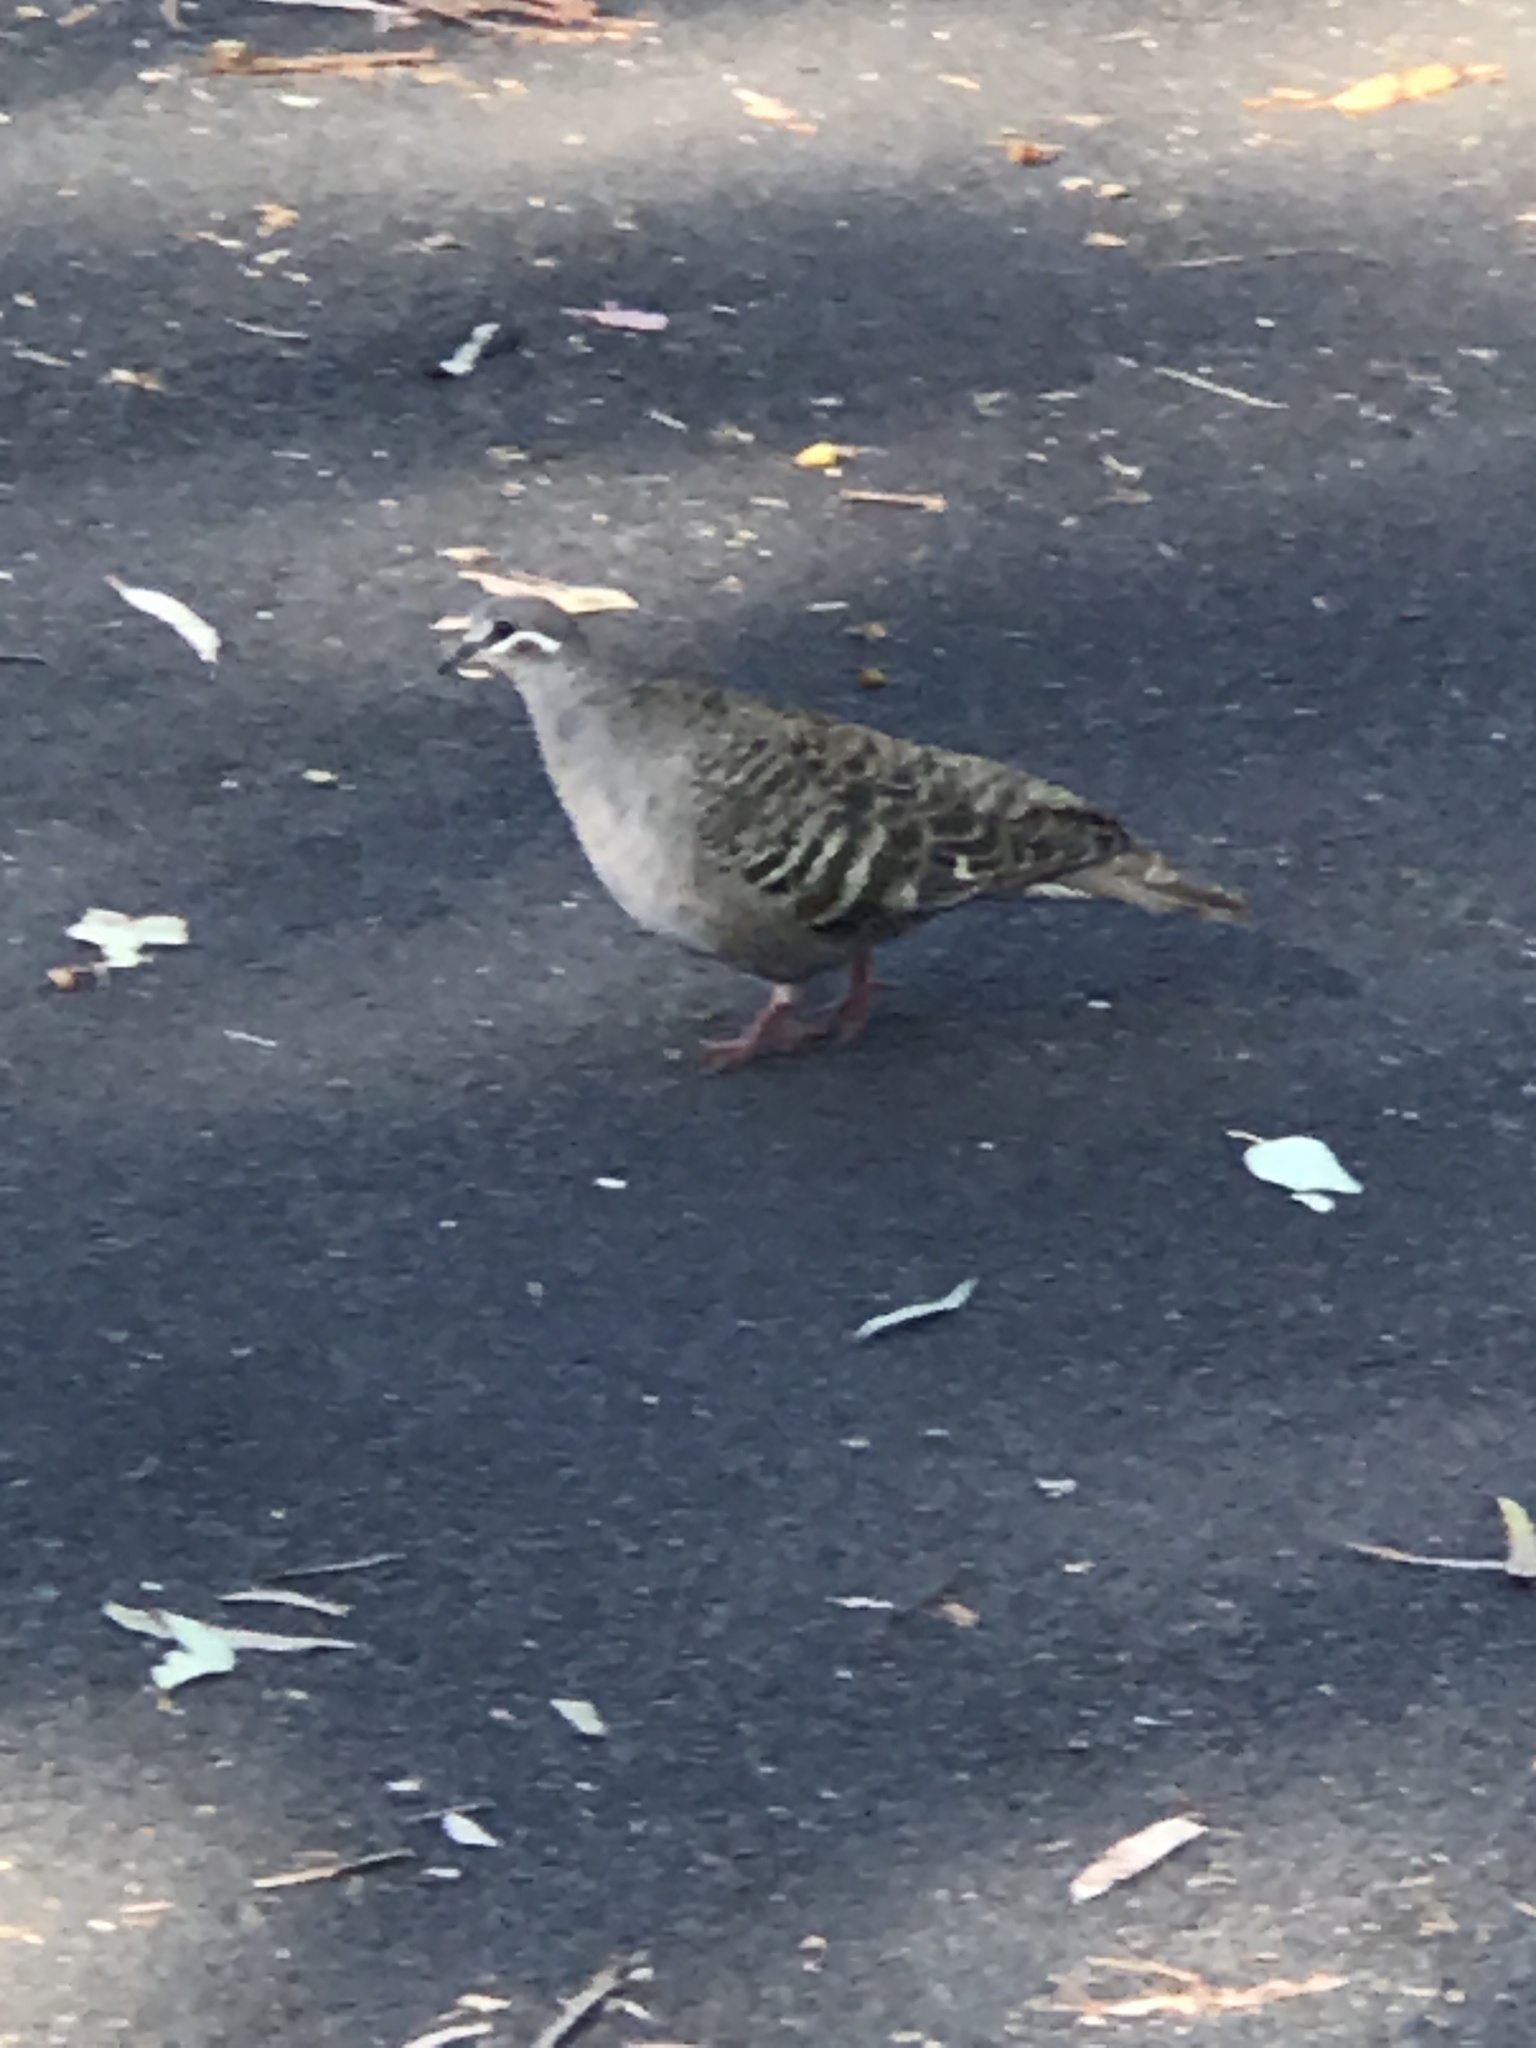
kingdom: Animalia
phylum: Chordata
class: Aves
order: Columbiformes
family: Columbidae
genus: Phaps
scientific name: Phaps chalcoptera
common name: Common bronzewing
